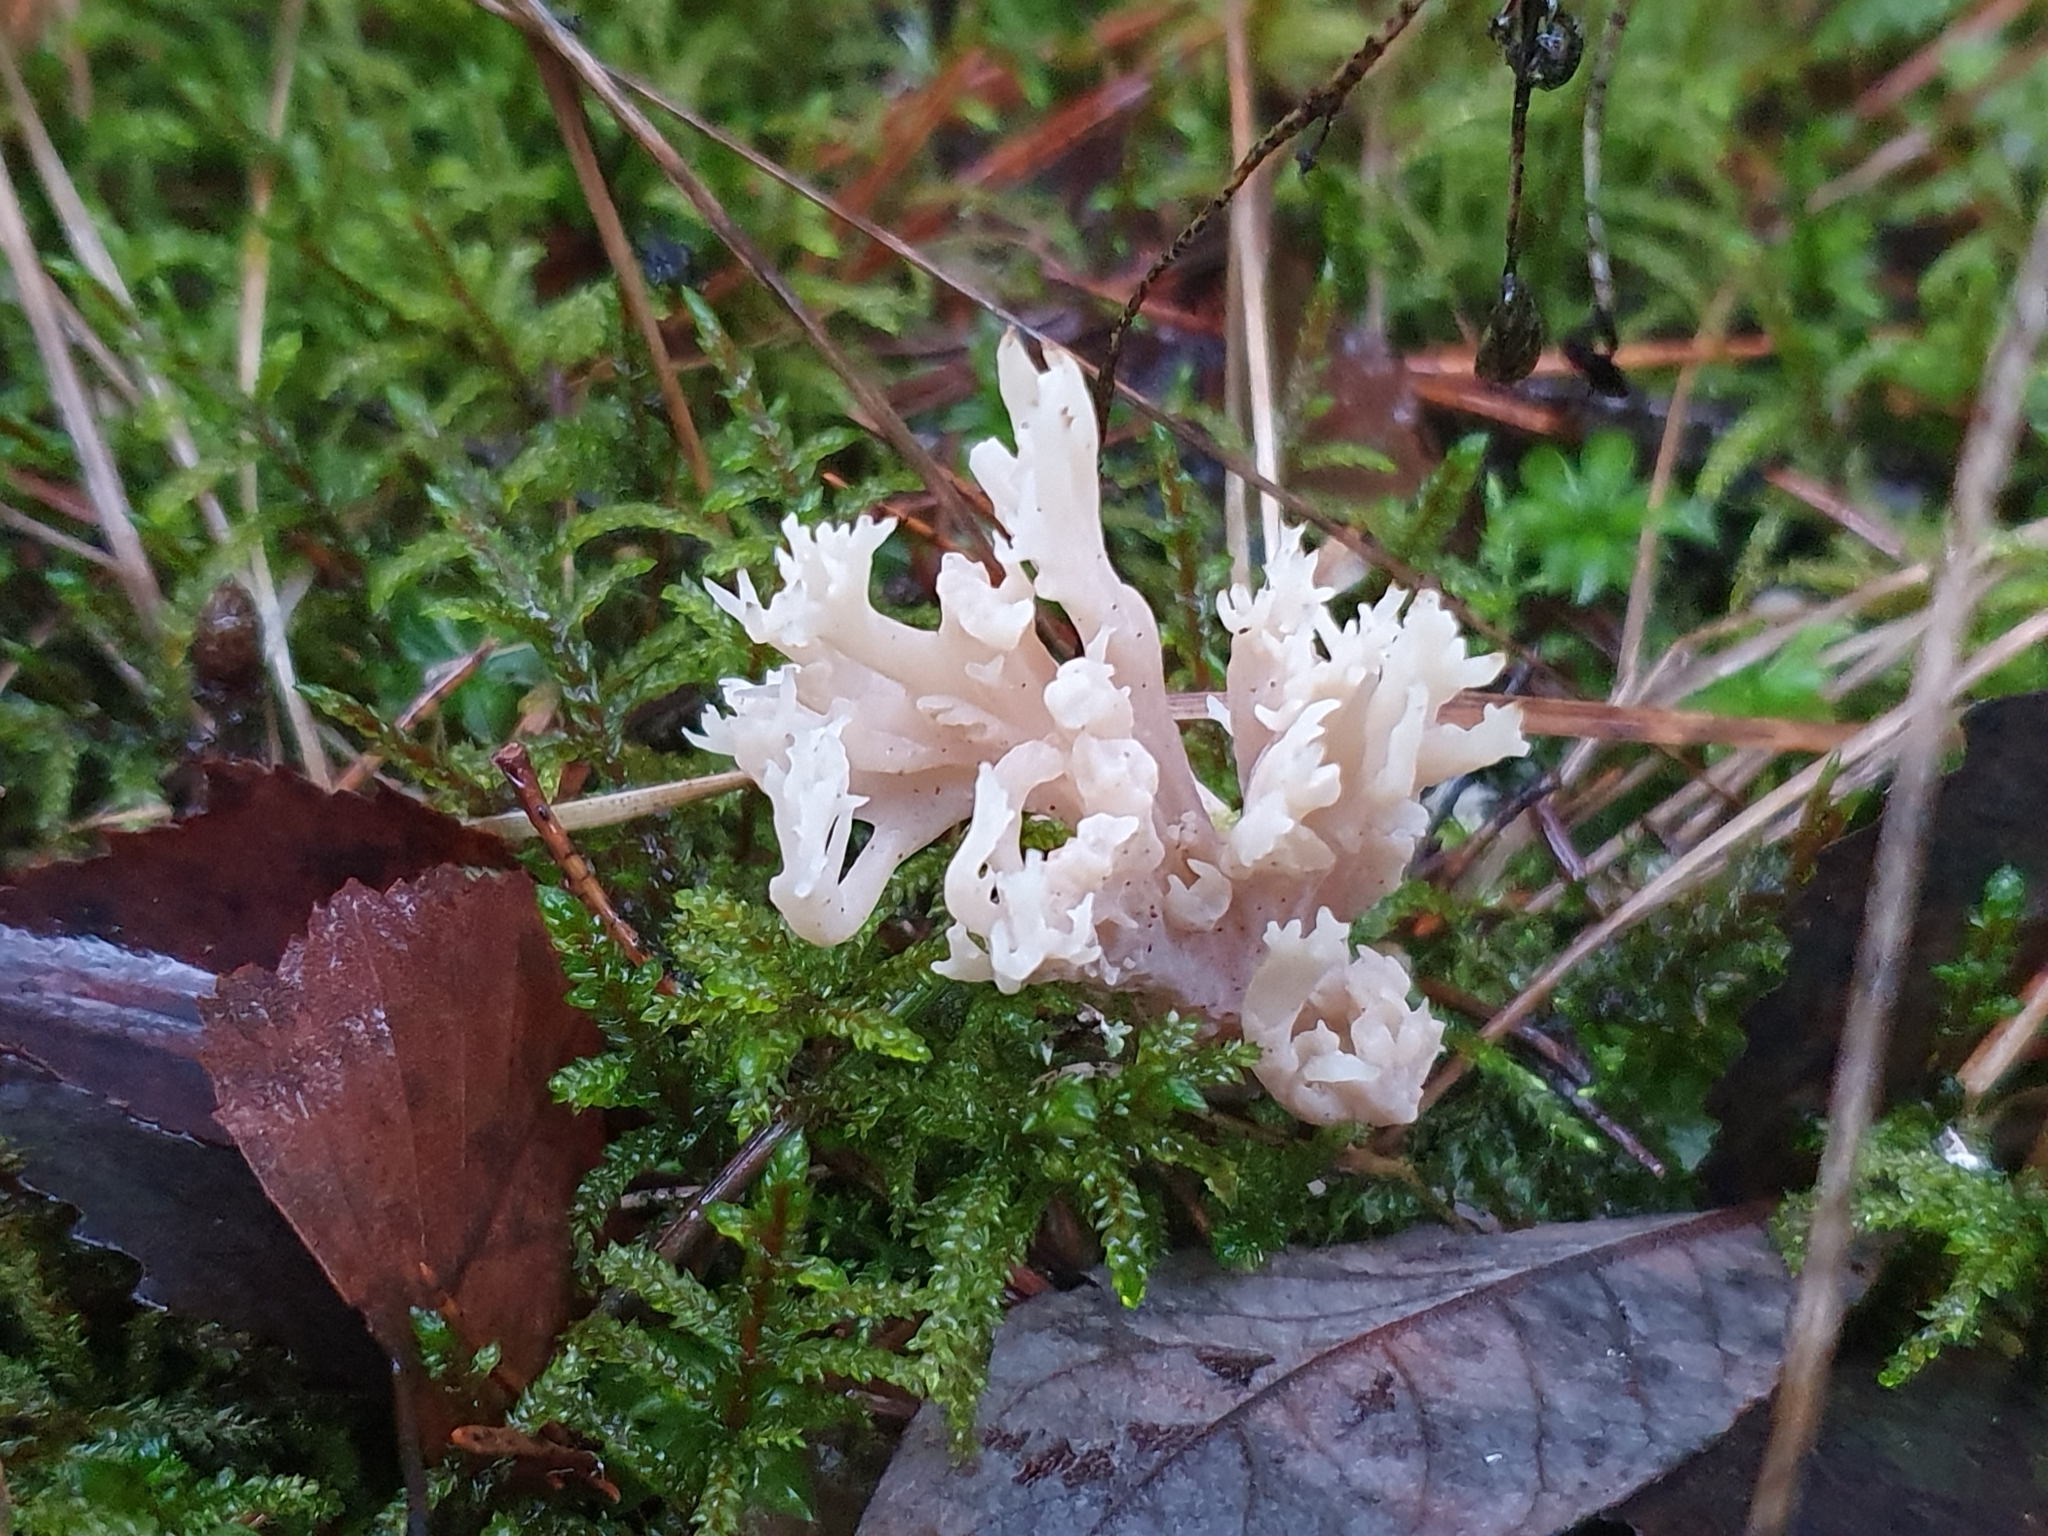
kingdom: Fungi
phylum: Basidiomycota
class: Agaricomycetes
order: Cantharellales
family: Hydnaceae
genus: Clavulina
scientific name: Clavulina coralloides
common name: Crested coral
